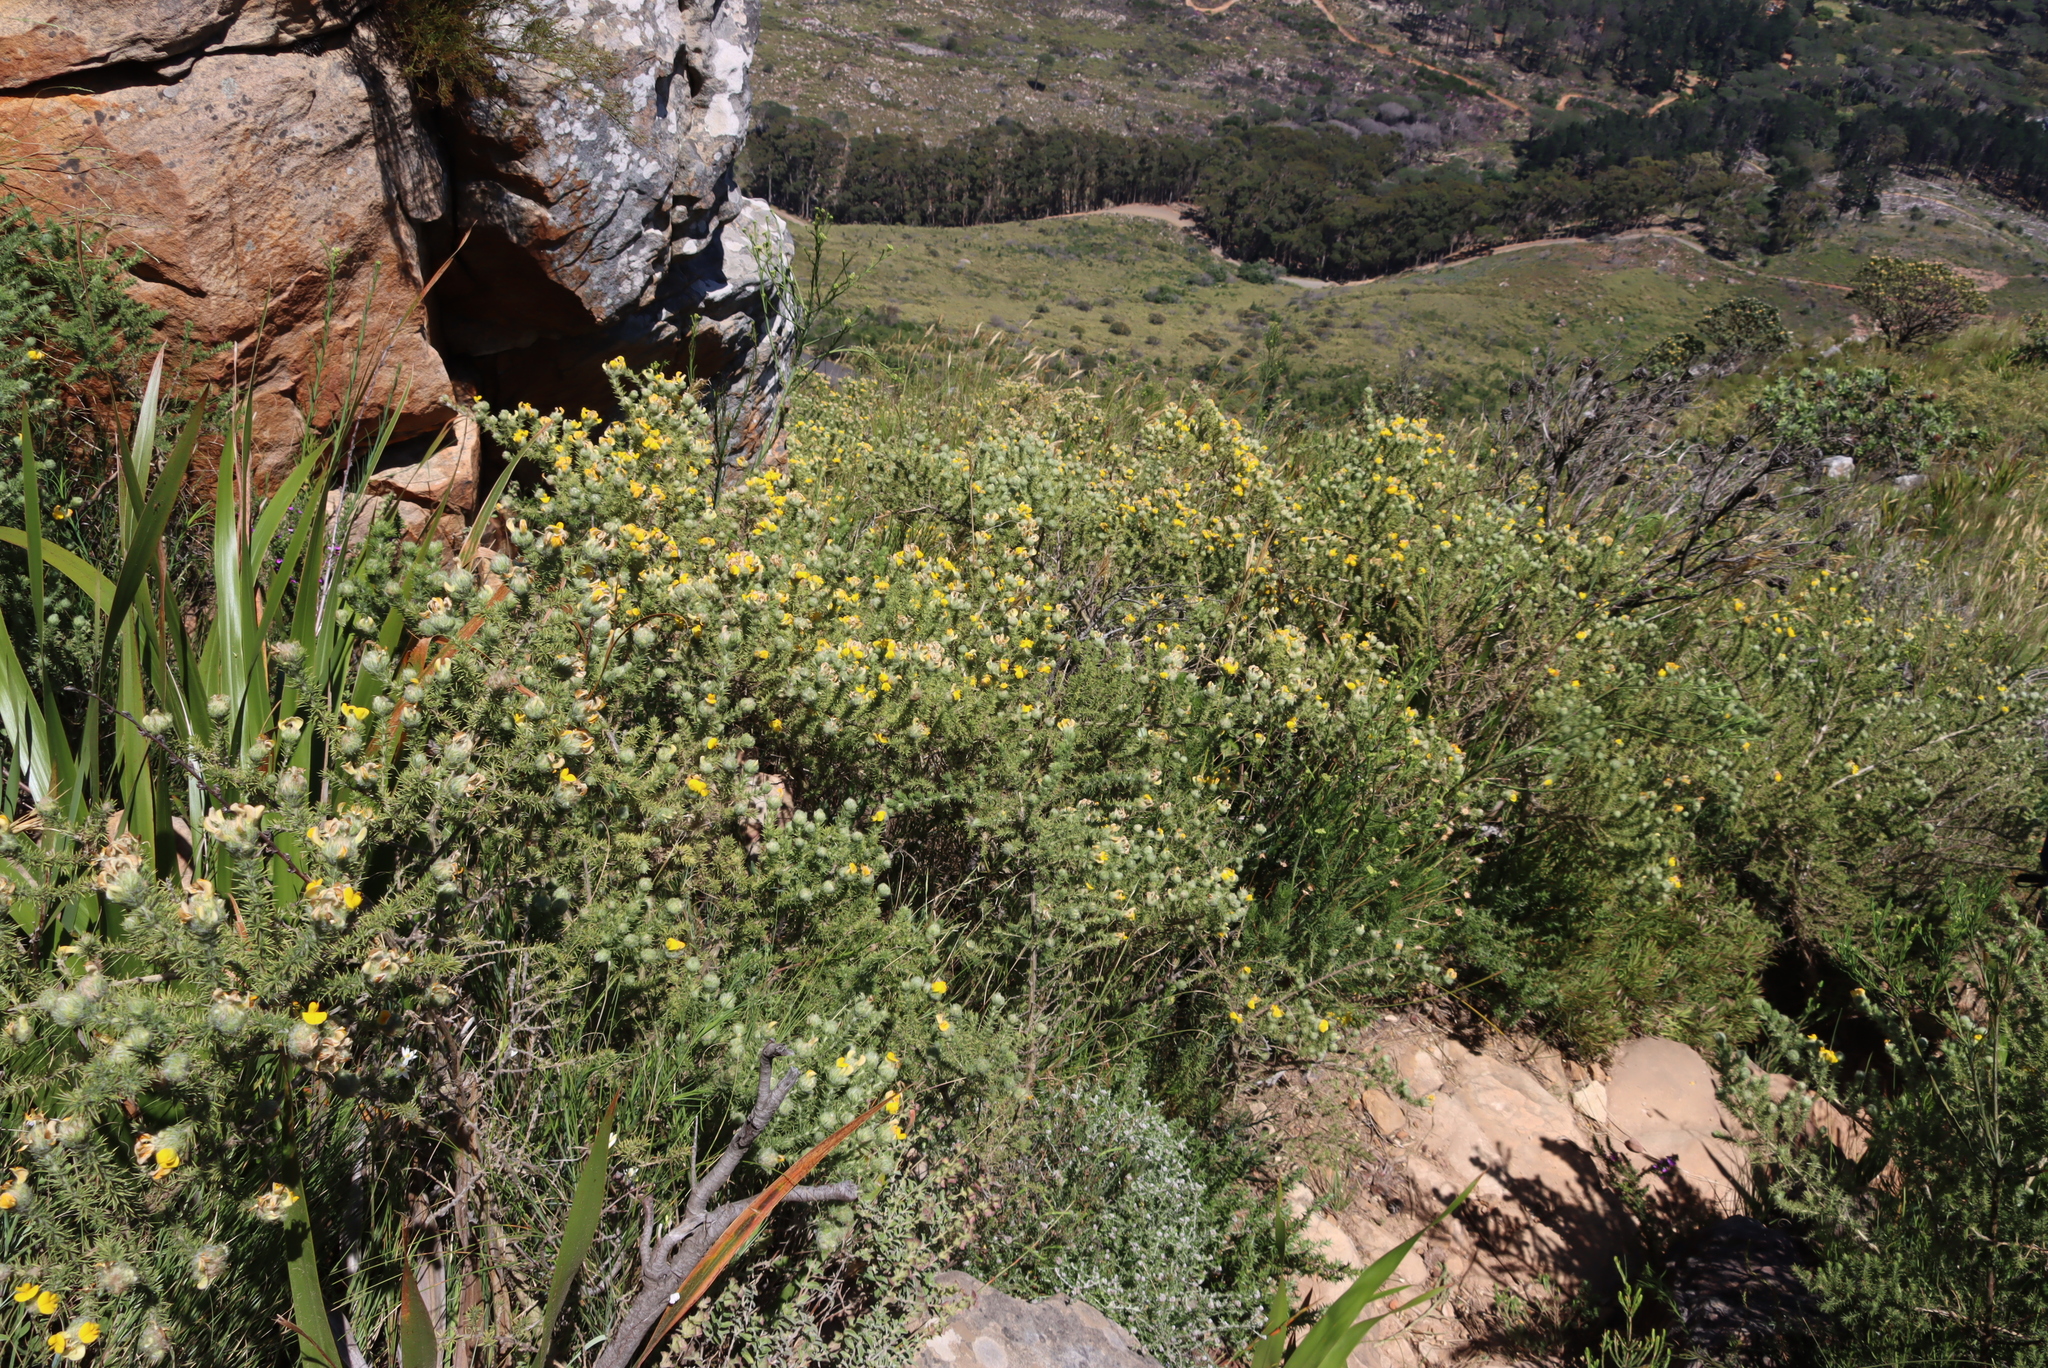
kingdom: Plantae
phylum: Tracheophyta
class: Magnoliopsida
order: Fabales
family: Fabaceae
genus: Aspalathus
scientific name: Aspalathus chenopoda
